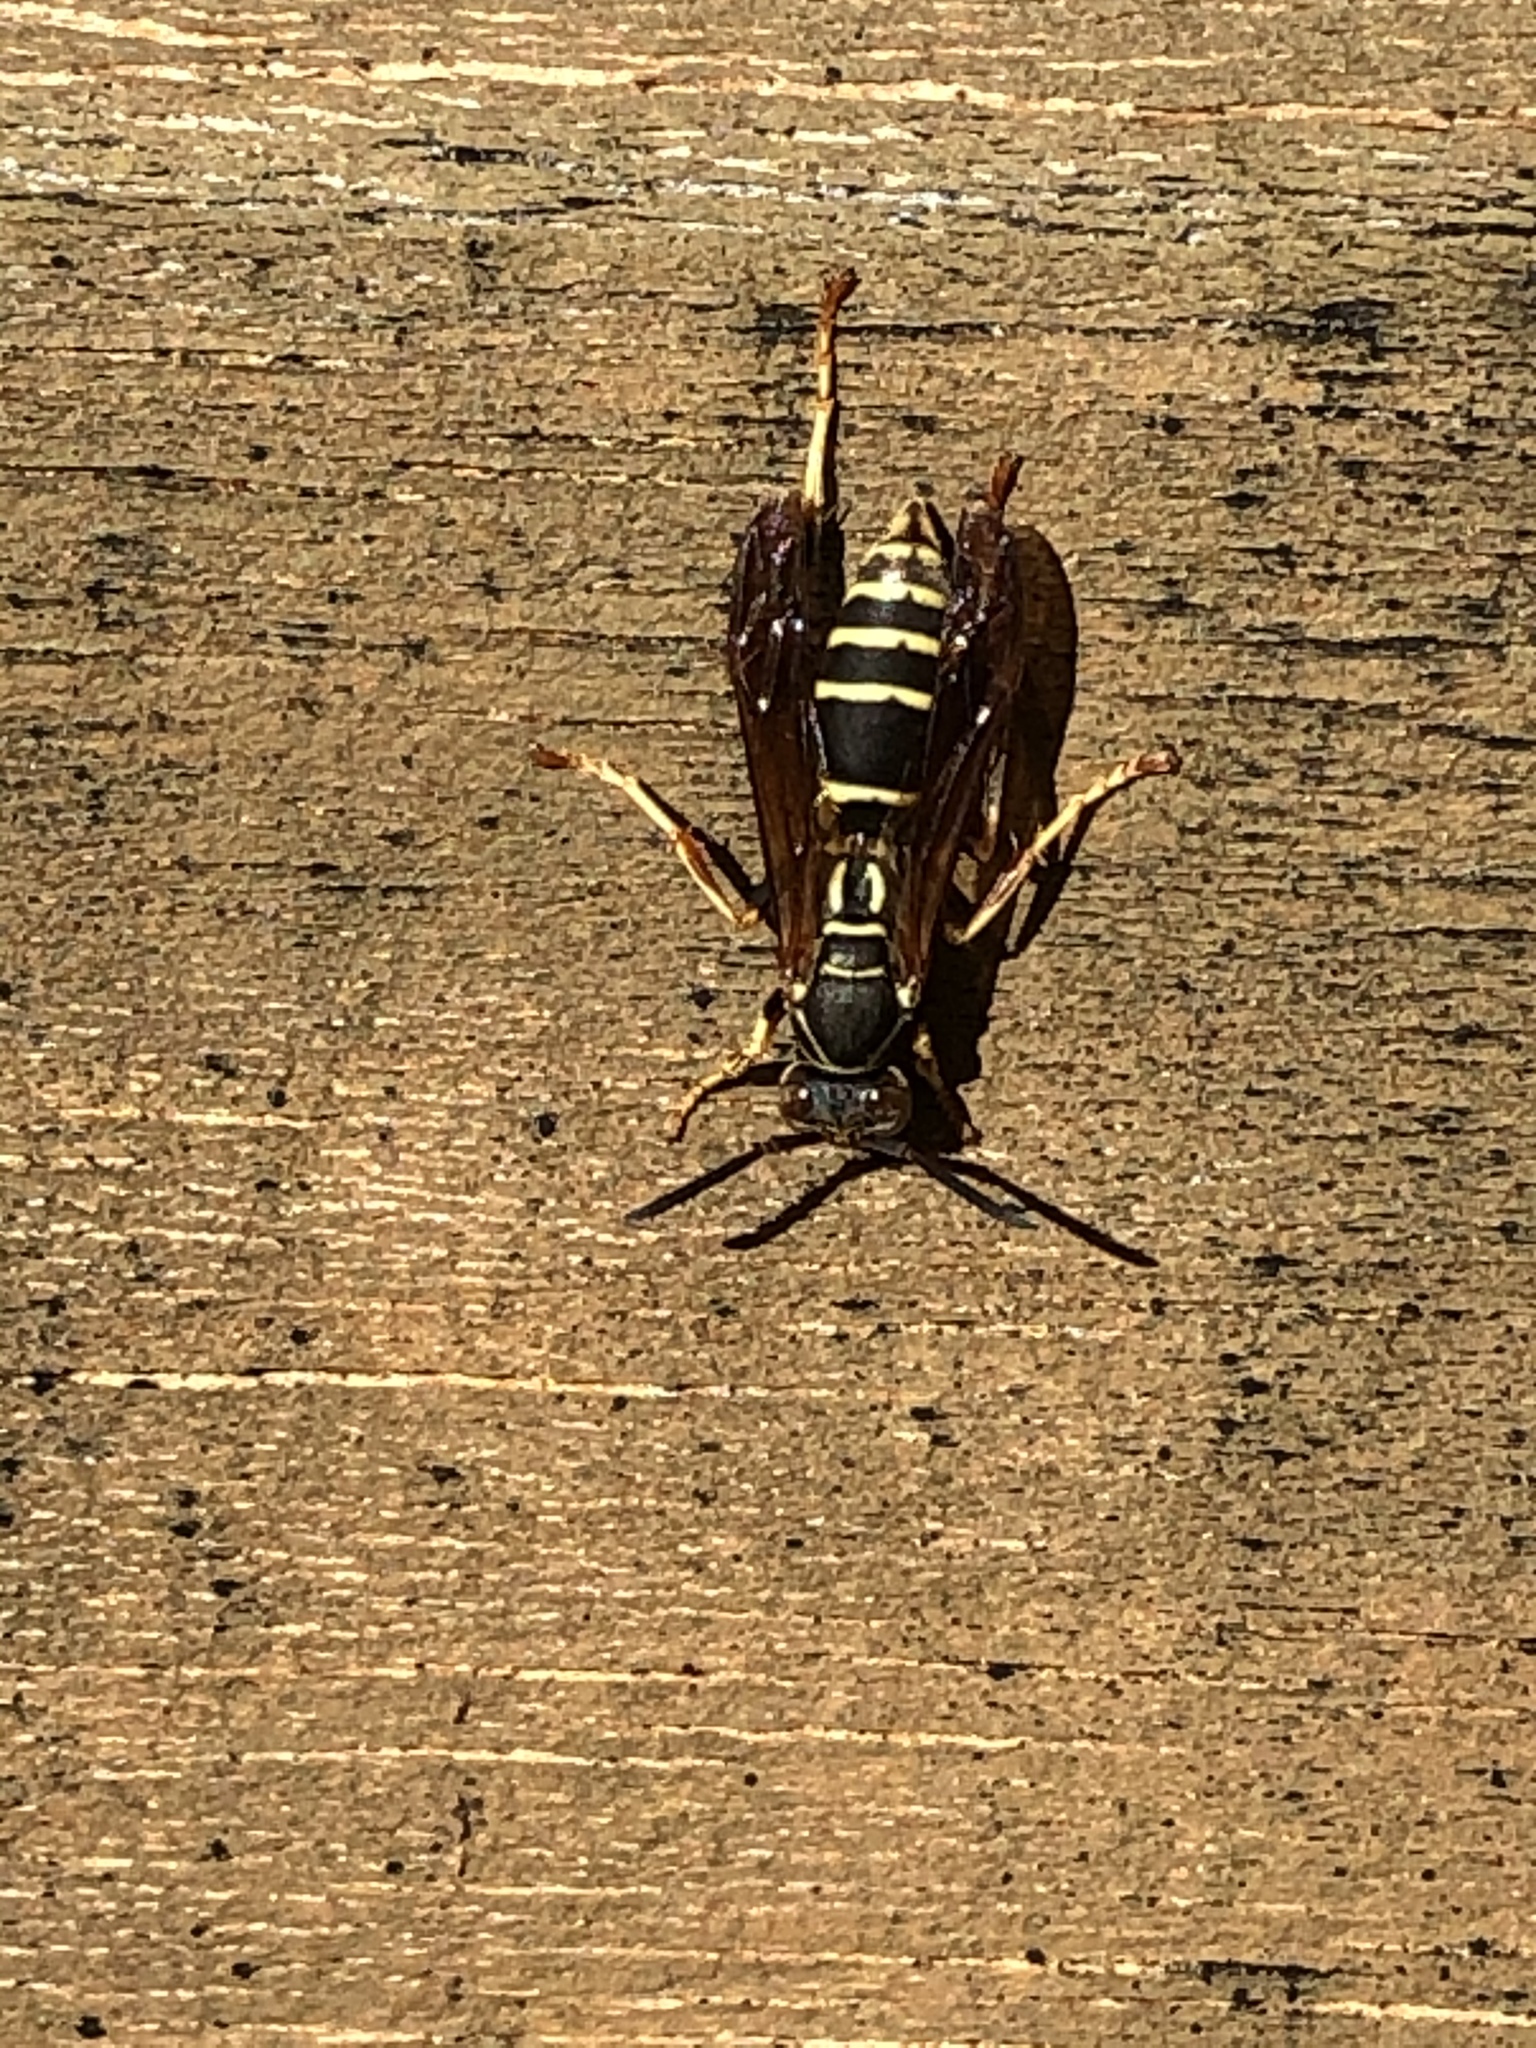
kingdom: Animalia
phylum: Arthropoda
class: Insecta
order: Hymenoptera
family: Eumenidae
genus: Polistes
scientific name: Polistes fuscatus
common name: Dark paper wasp
